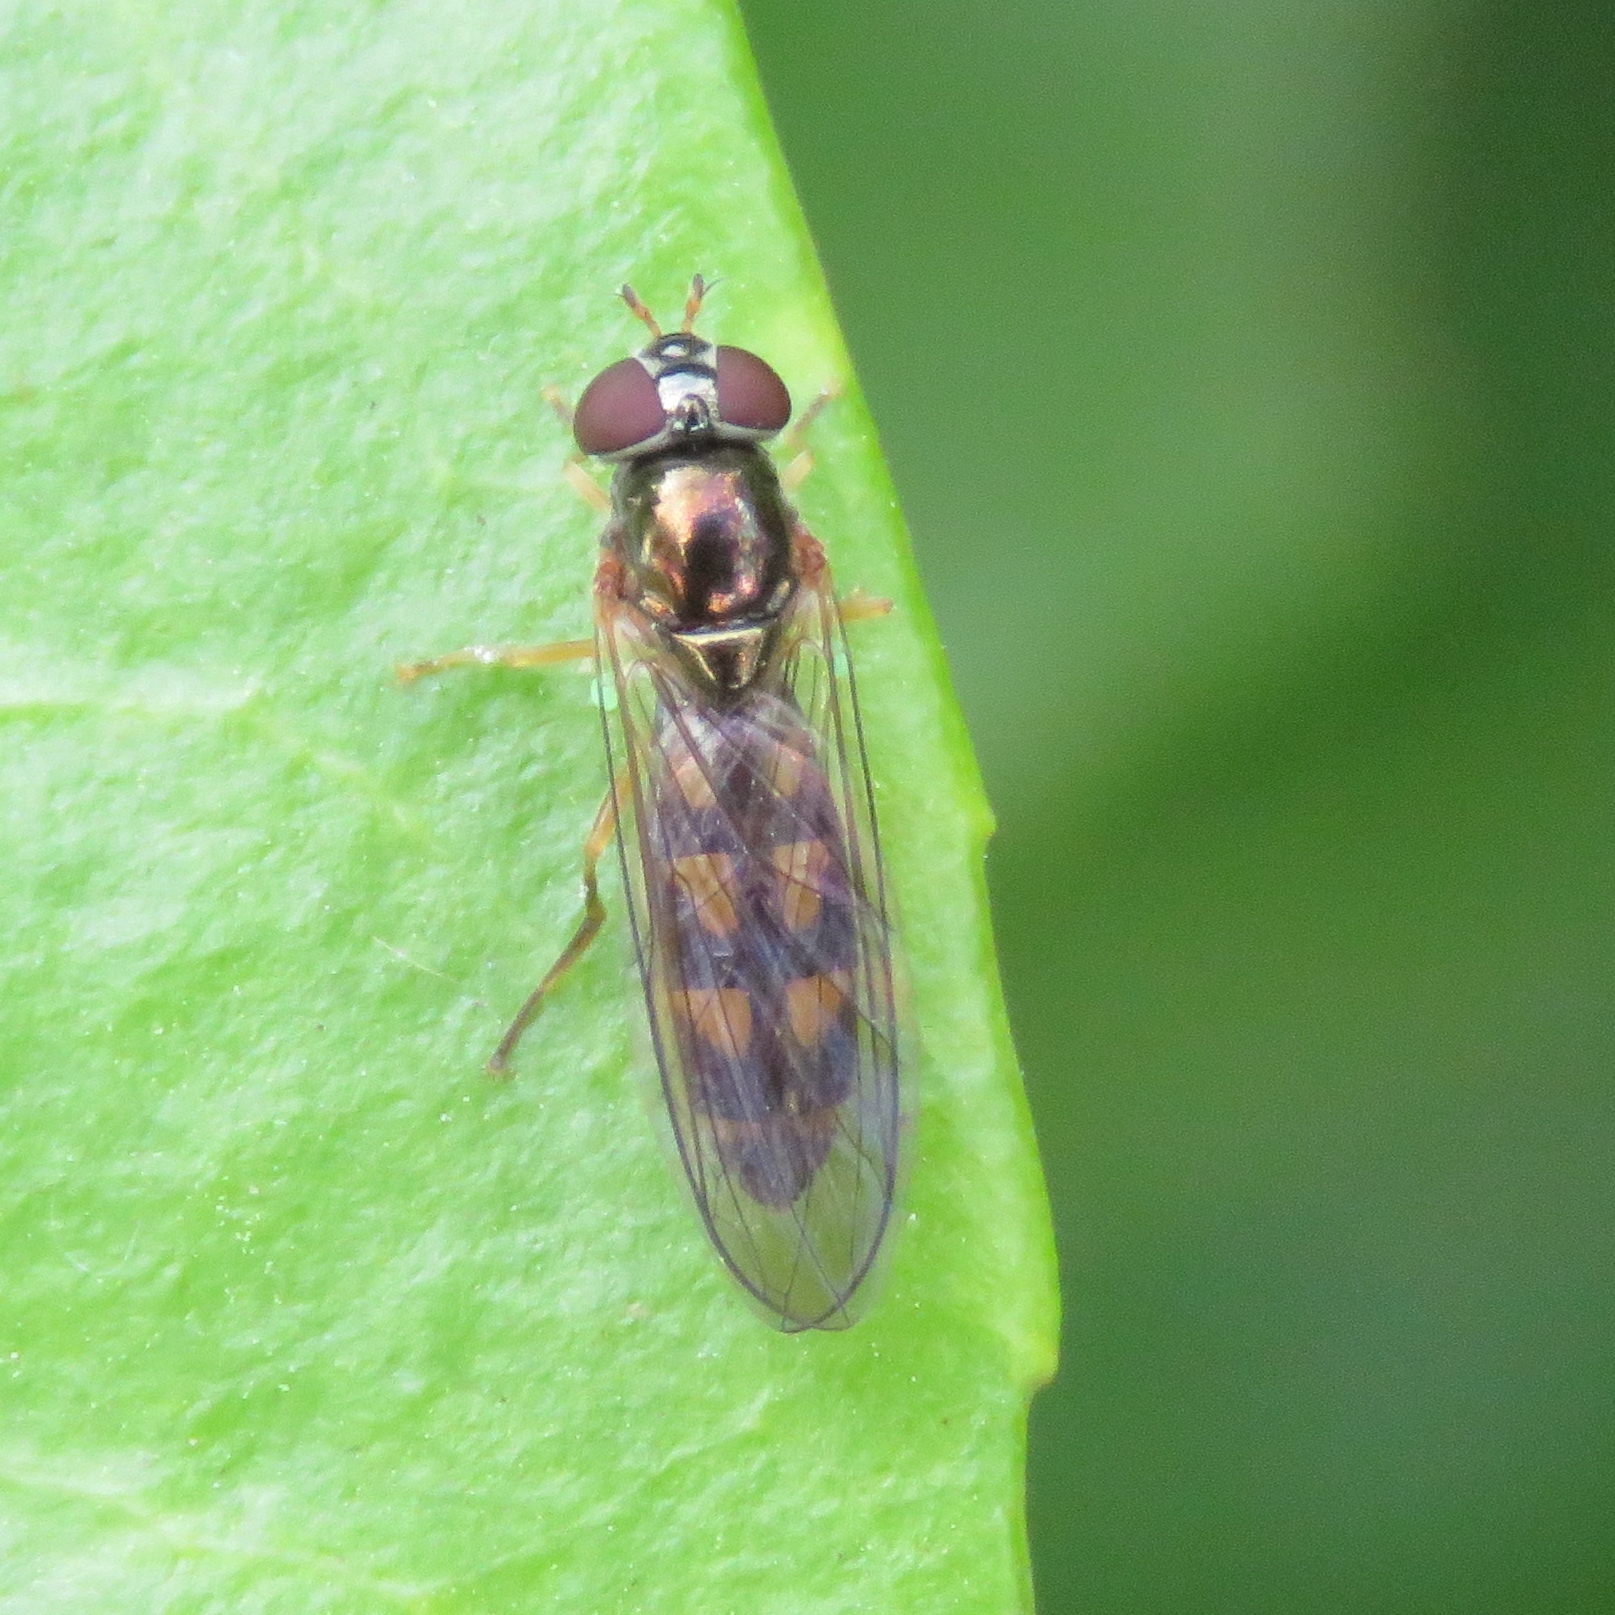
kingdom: Animalia
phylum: Arthropoda
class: Insecta
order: Diptera
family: Syrphidae
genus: Melanostoma
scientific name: Melanostoma scalare
